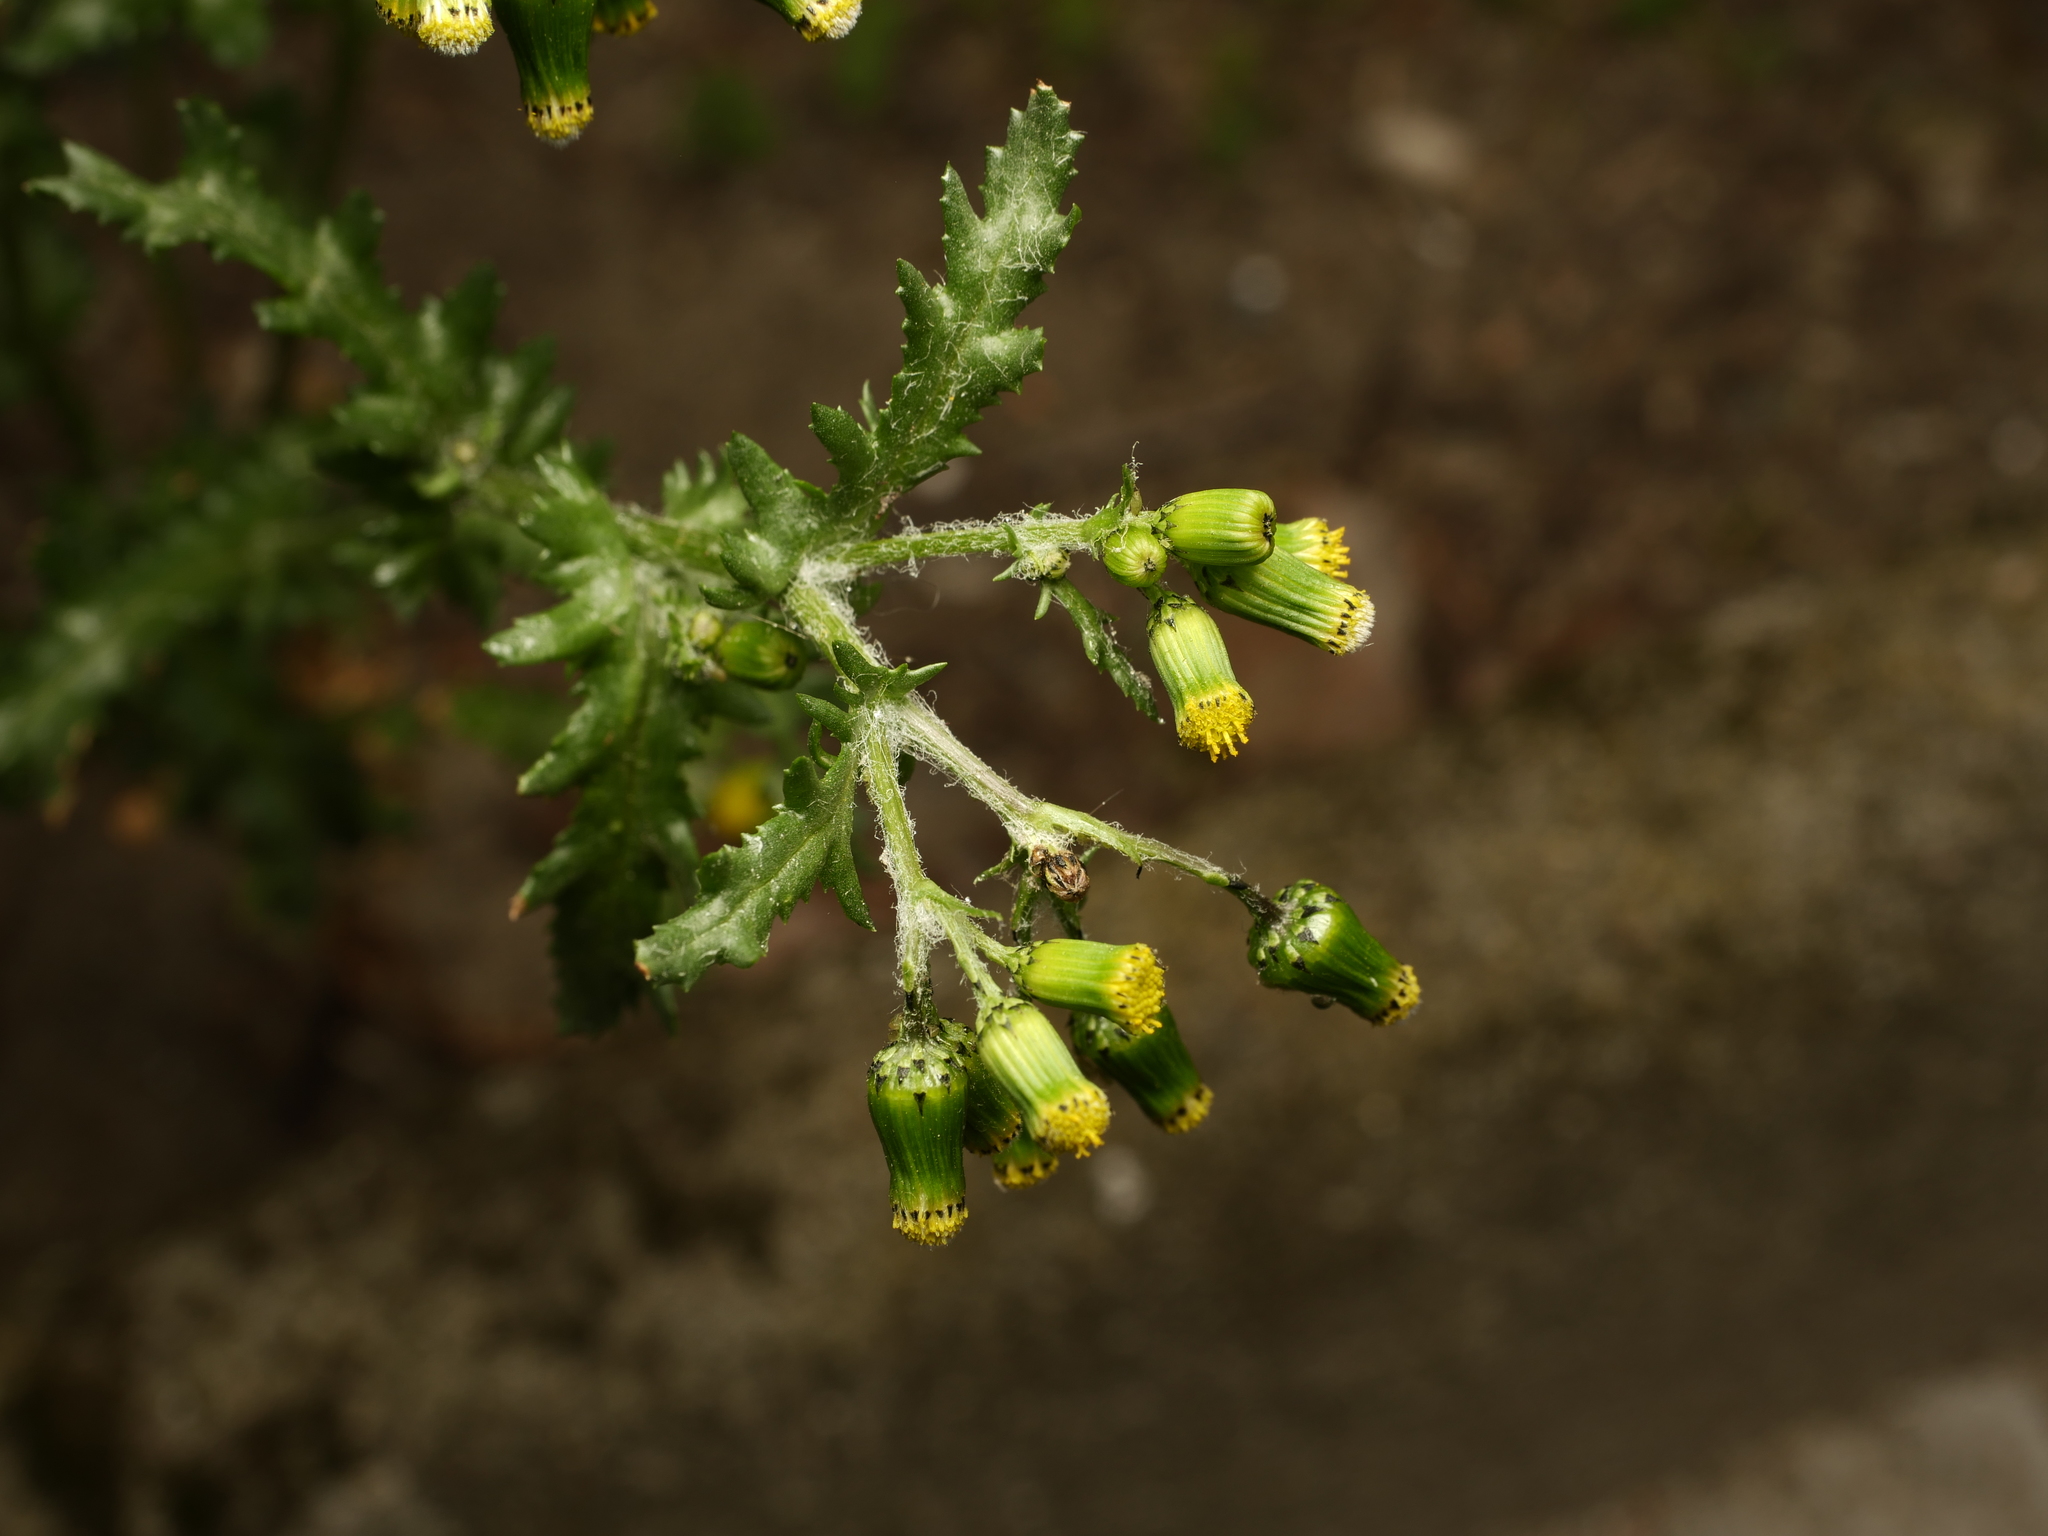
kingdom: Plantae
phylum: Tracheophyta
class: Magnoliopsida
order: Asterales
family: Asteraceae
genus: Senecio
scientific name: Senecio vulgaris
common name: Old-man-in-the-spring
